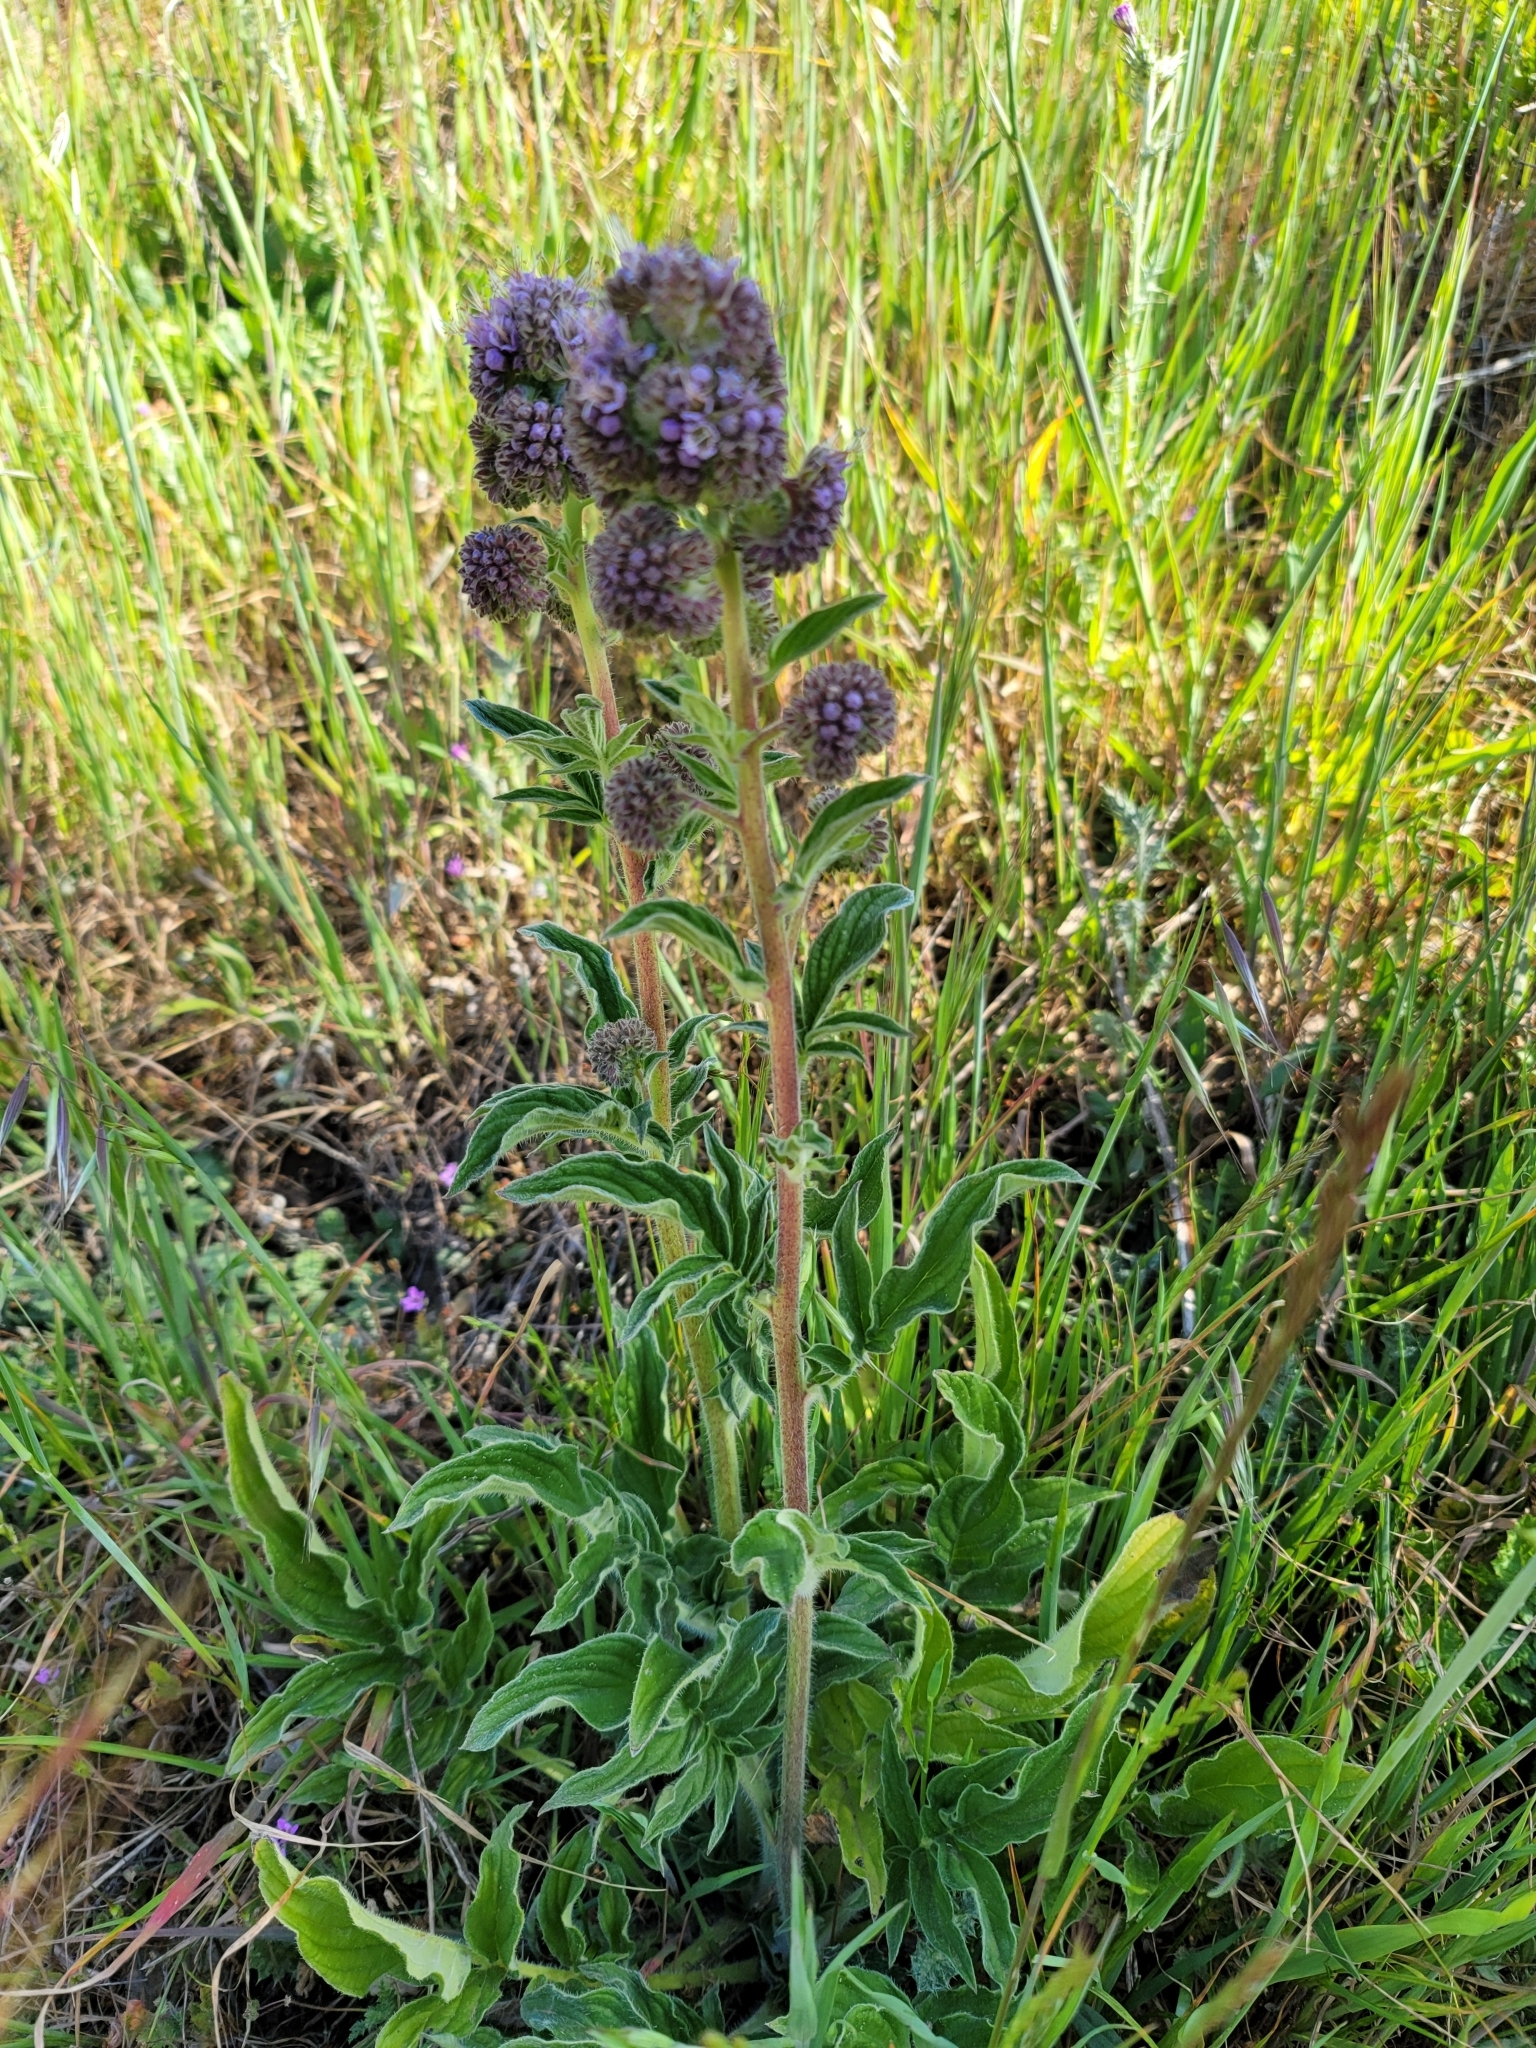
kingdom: Plantae
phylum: Tracheophyta
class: Magnoliopsida
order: Boraginales
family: Hydrophyllaceae
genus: Phacelia
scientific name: Phacelia californica
